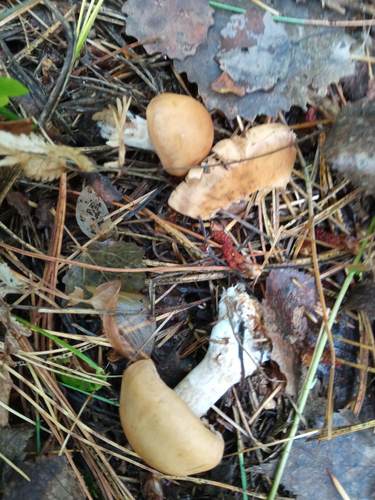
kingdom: Fungi
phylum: Basidiomycota
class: Agaricomycetes
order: Agaricales
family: Cortinariaceae
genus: Cortinarius
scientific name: Cortinarius
